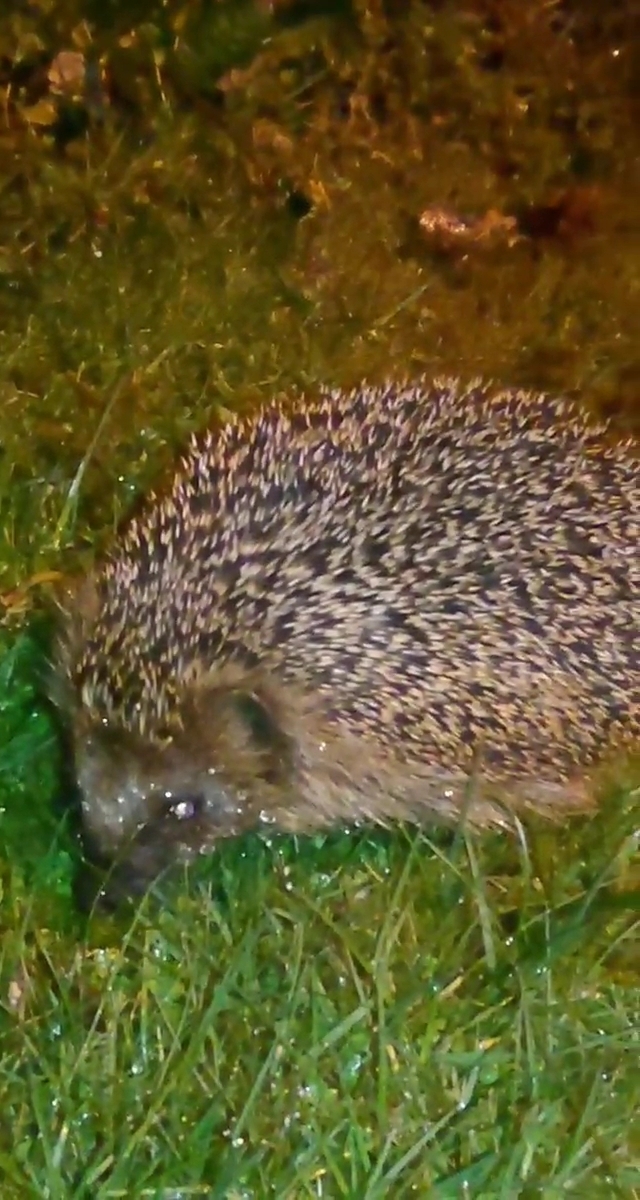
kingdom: Animalia
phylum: Chordata
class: Mammalia
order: Erinaceomorpha
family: Erinaceidae
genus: Erinaceus
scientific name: Erinaceus europaeus
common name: West european hedgehog
